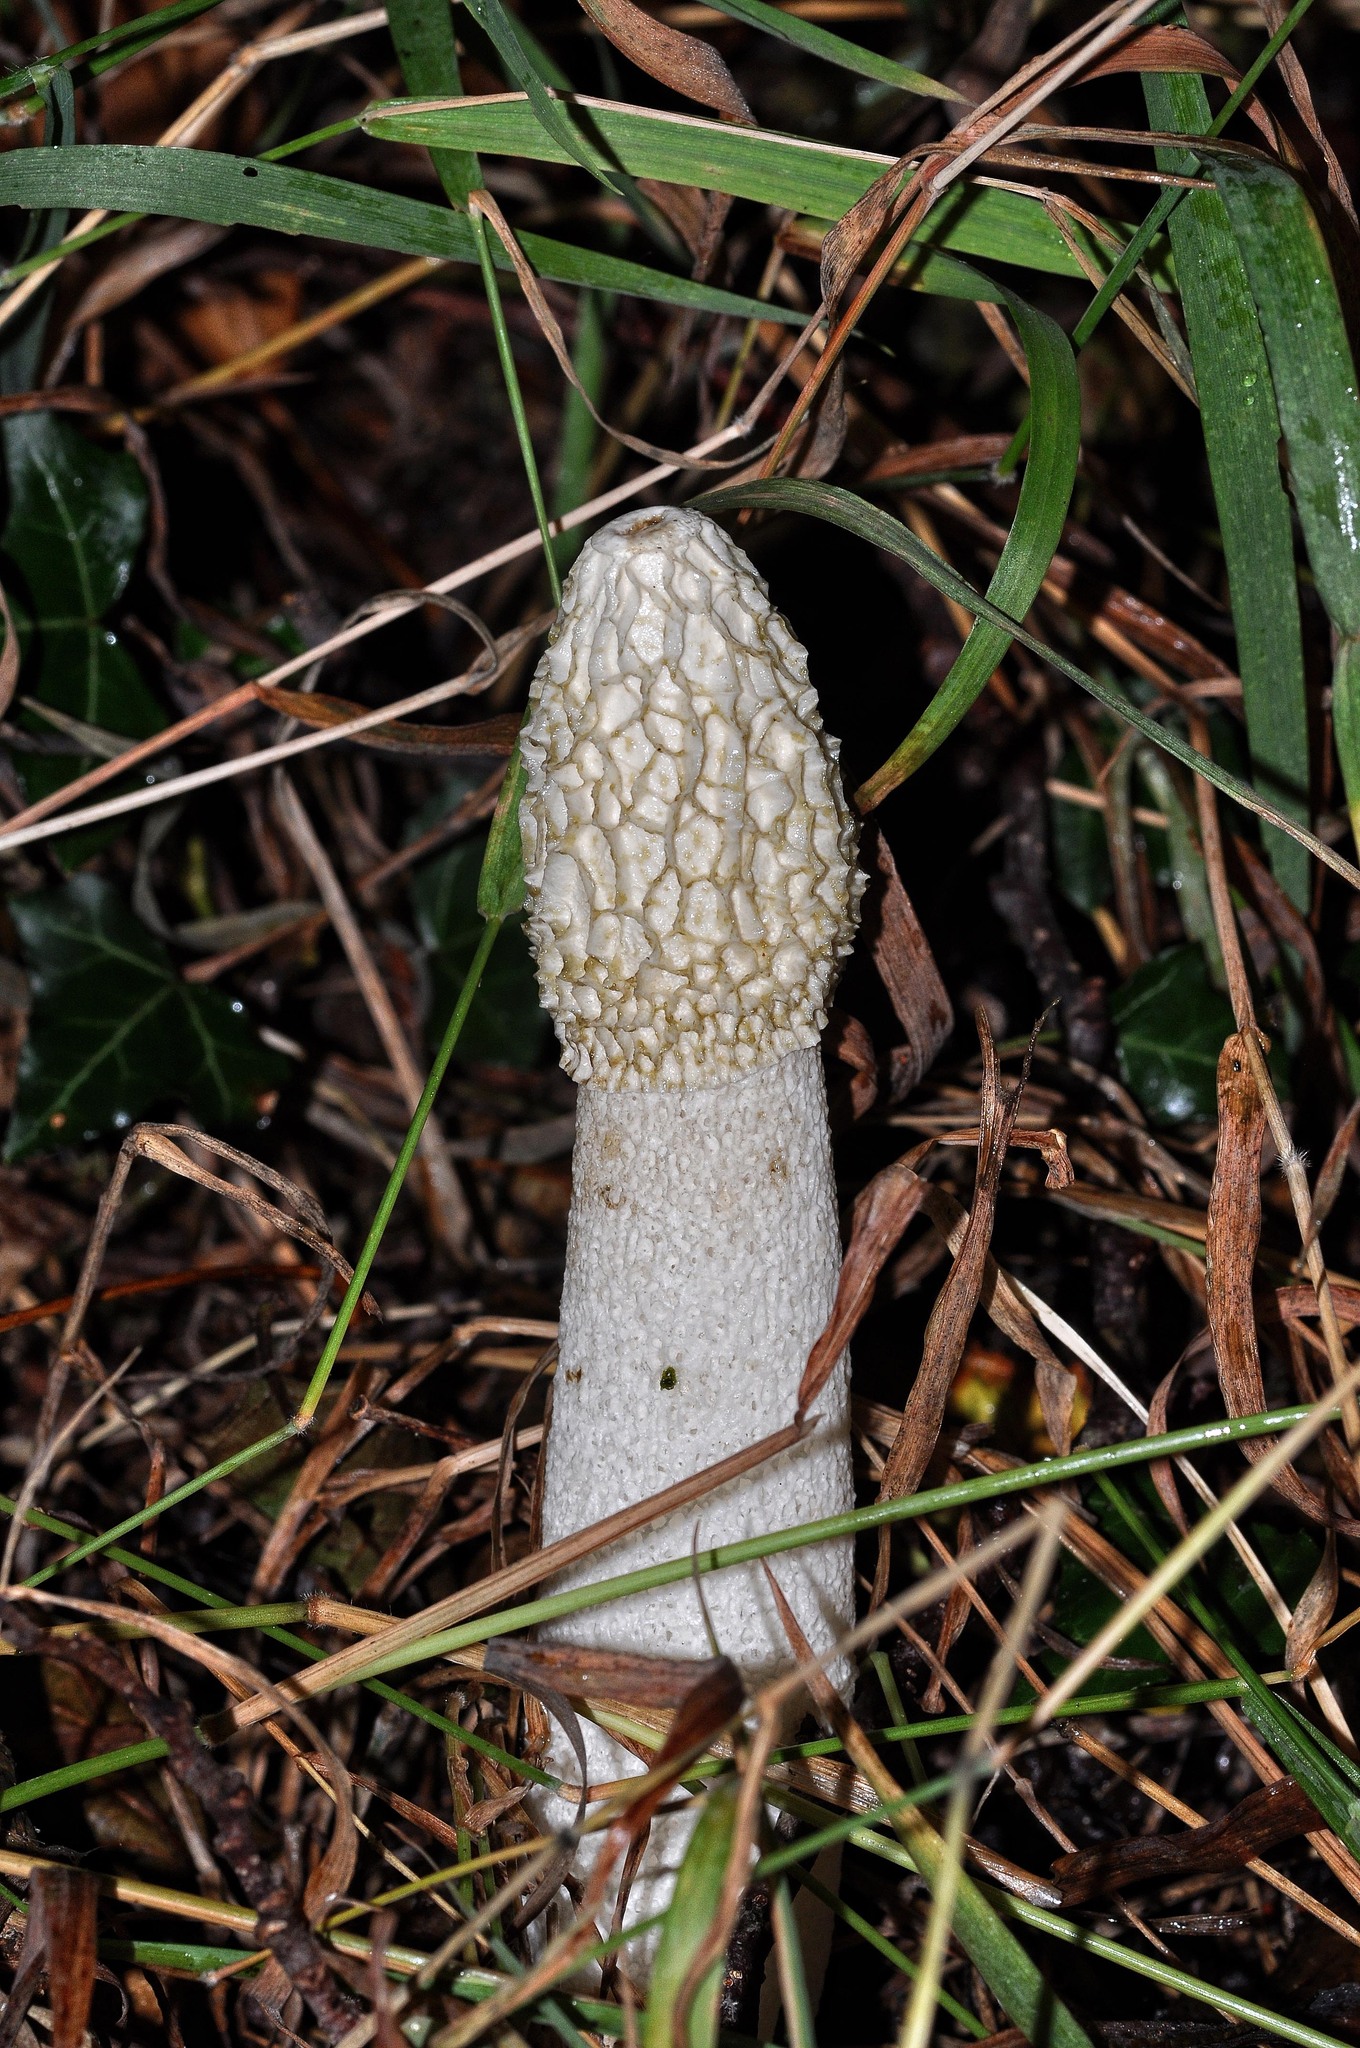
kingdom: Fungi
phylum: Basidiomycota
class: Agaricomycetes
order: Phallales
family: Phallaceae
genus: Phallus
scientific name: Phallus impudicus
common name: Common stinkhorn
